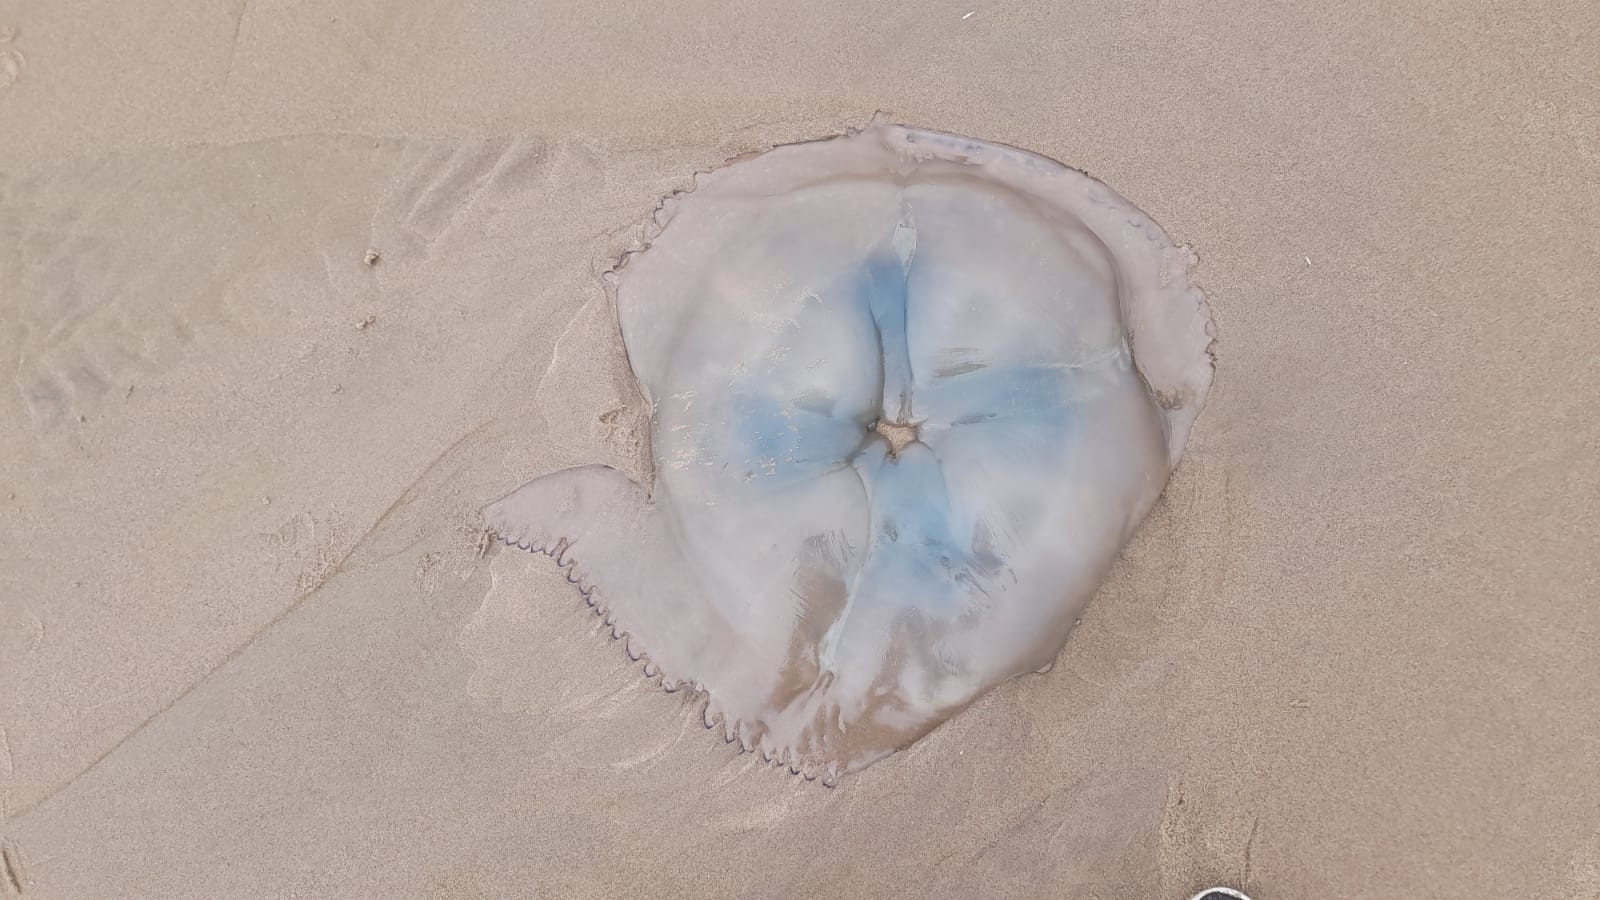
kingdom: Animalia
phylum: Cnidaria
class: Scyphozoa
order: Rhizostomeae
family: Rhizostomatidae
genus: Rhizostoma
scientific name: Rhizostoma octopus
